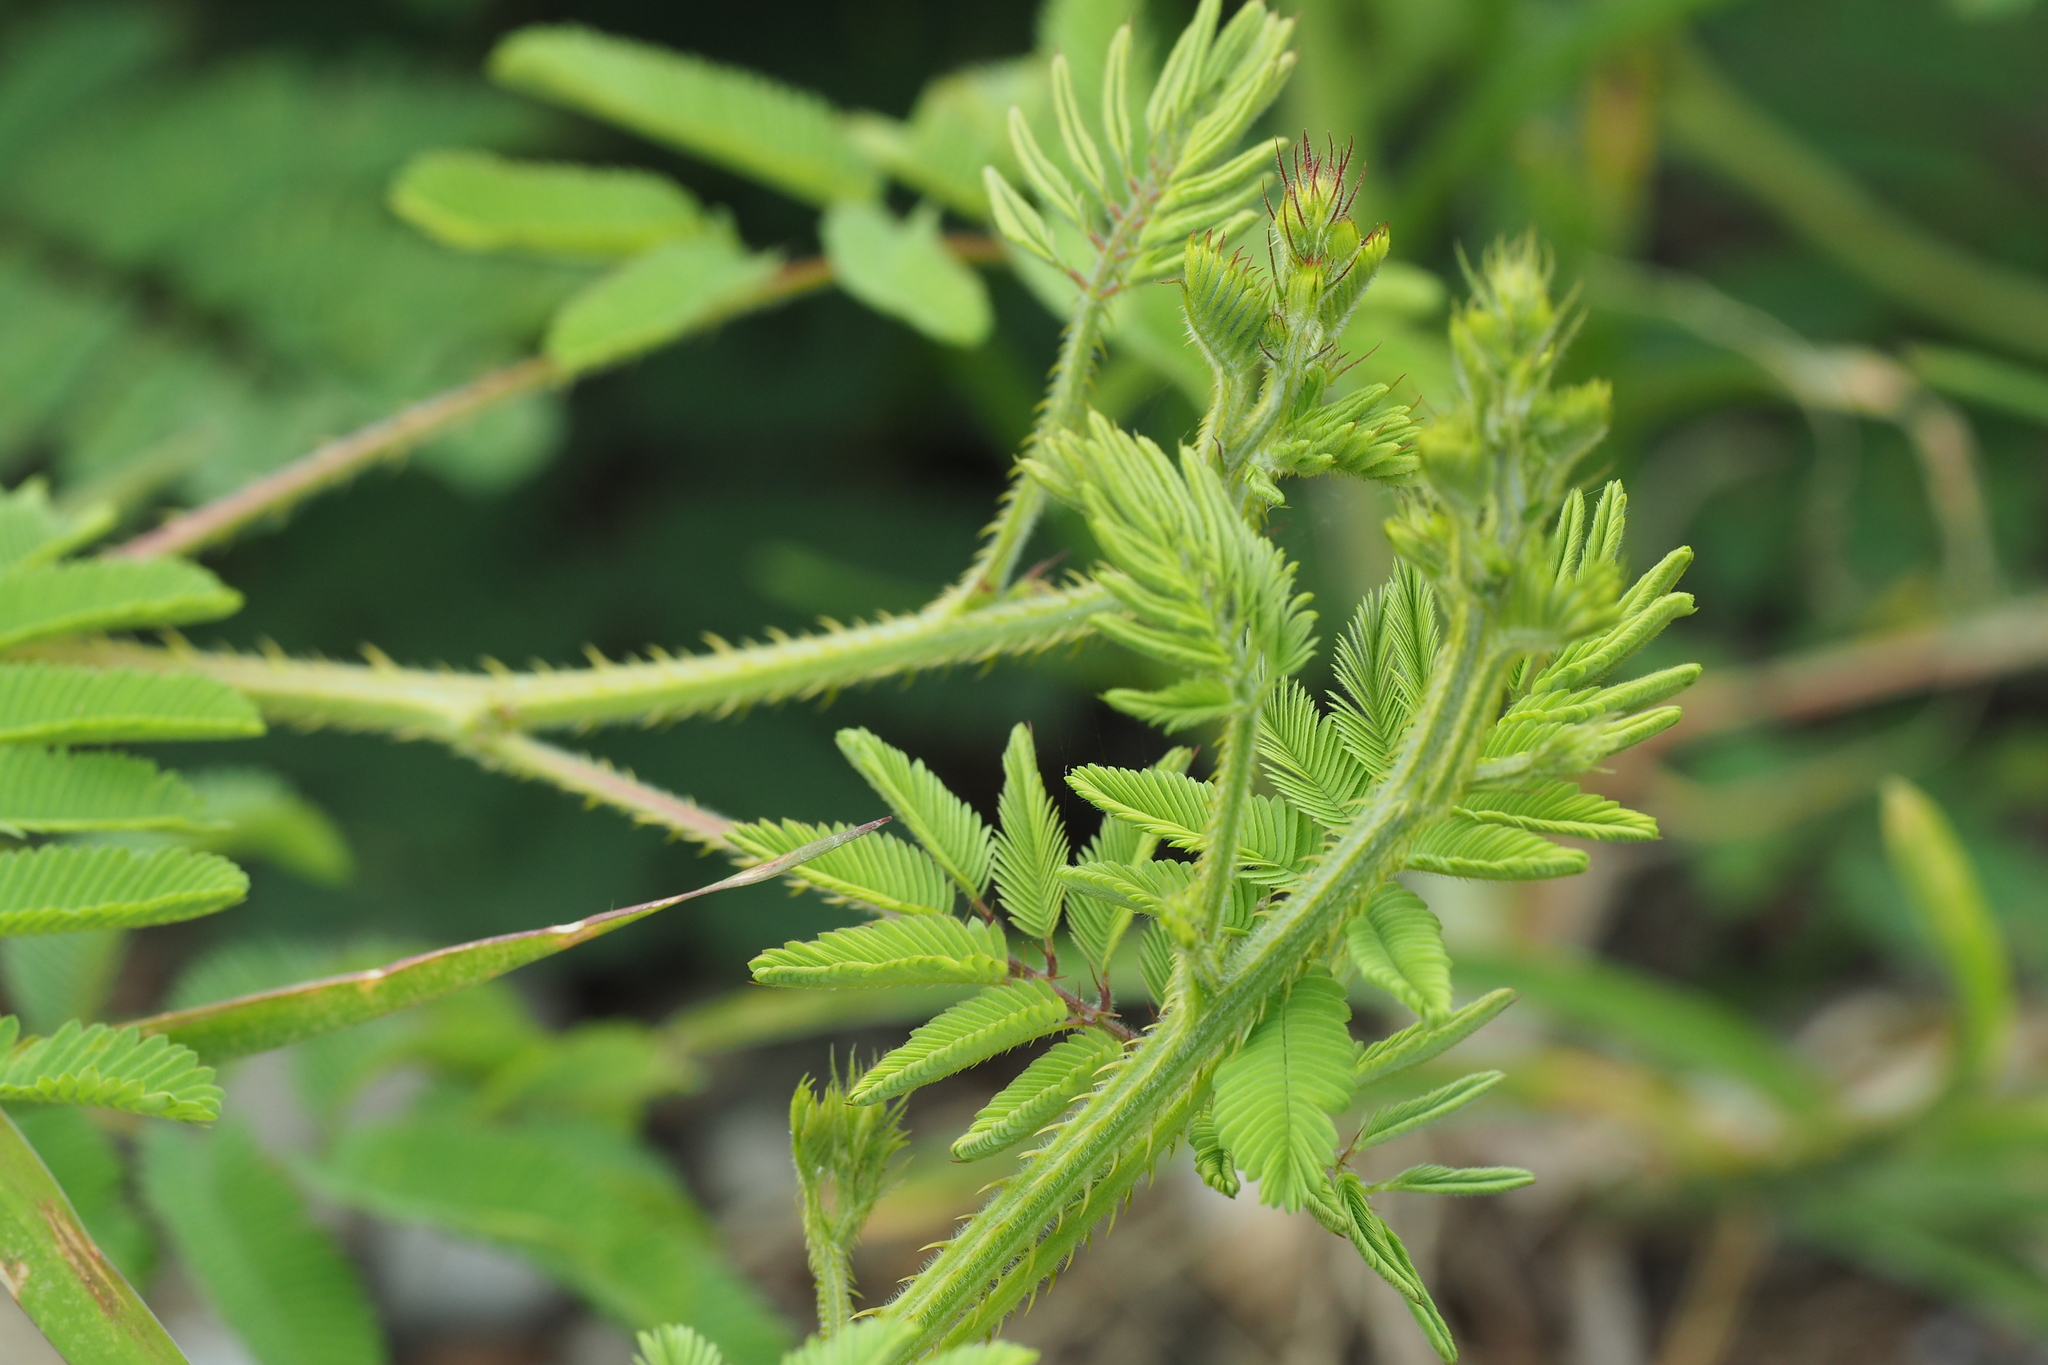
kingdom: Plantae
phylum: Tracheophyta
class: Magnoliopsida
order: Fabales
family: Fabaceae
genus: Mimosa
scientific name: Mimosa diplotricha
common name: Giant sensitive-plant
